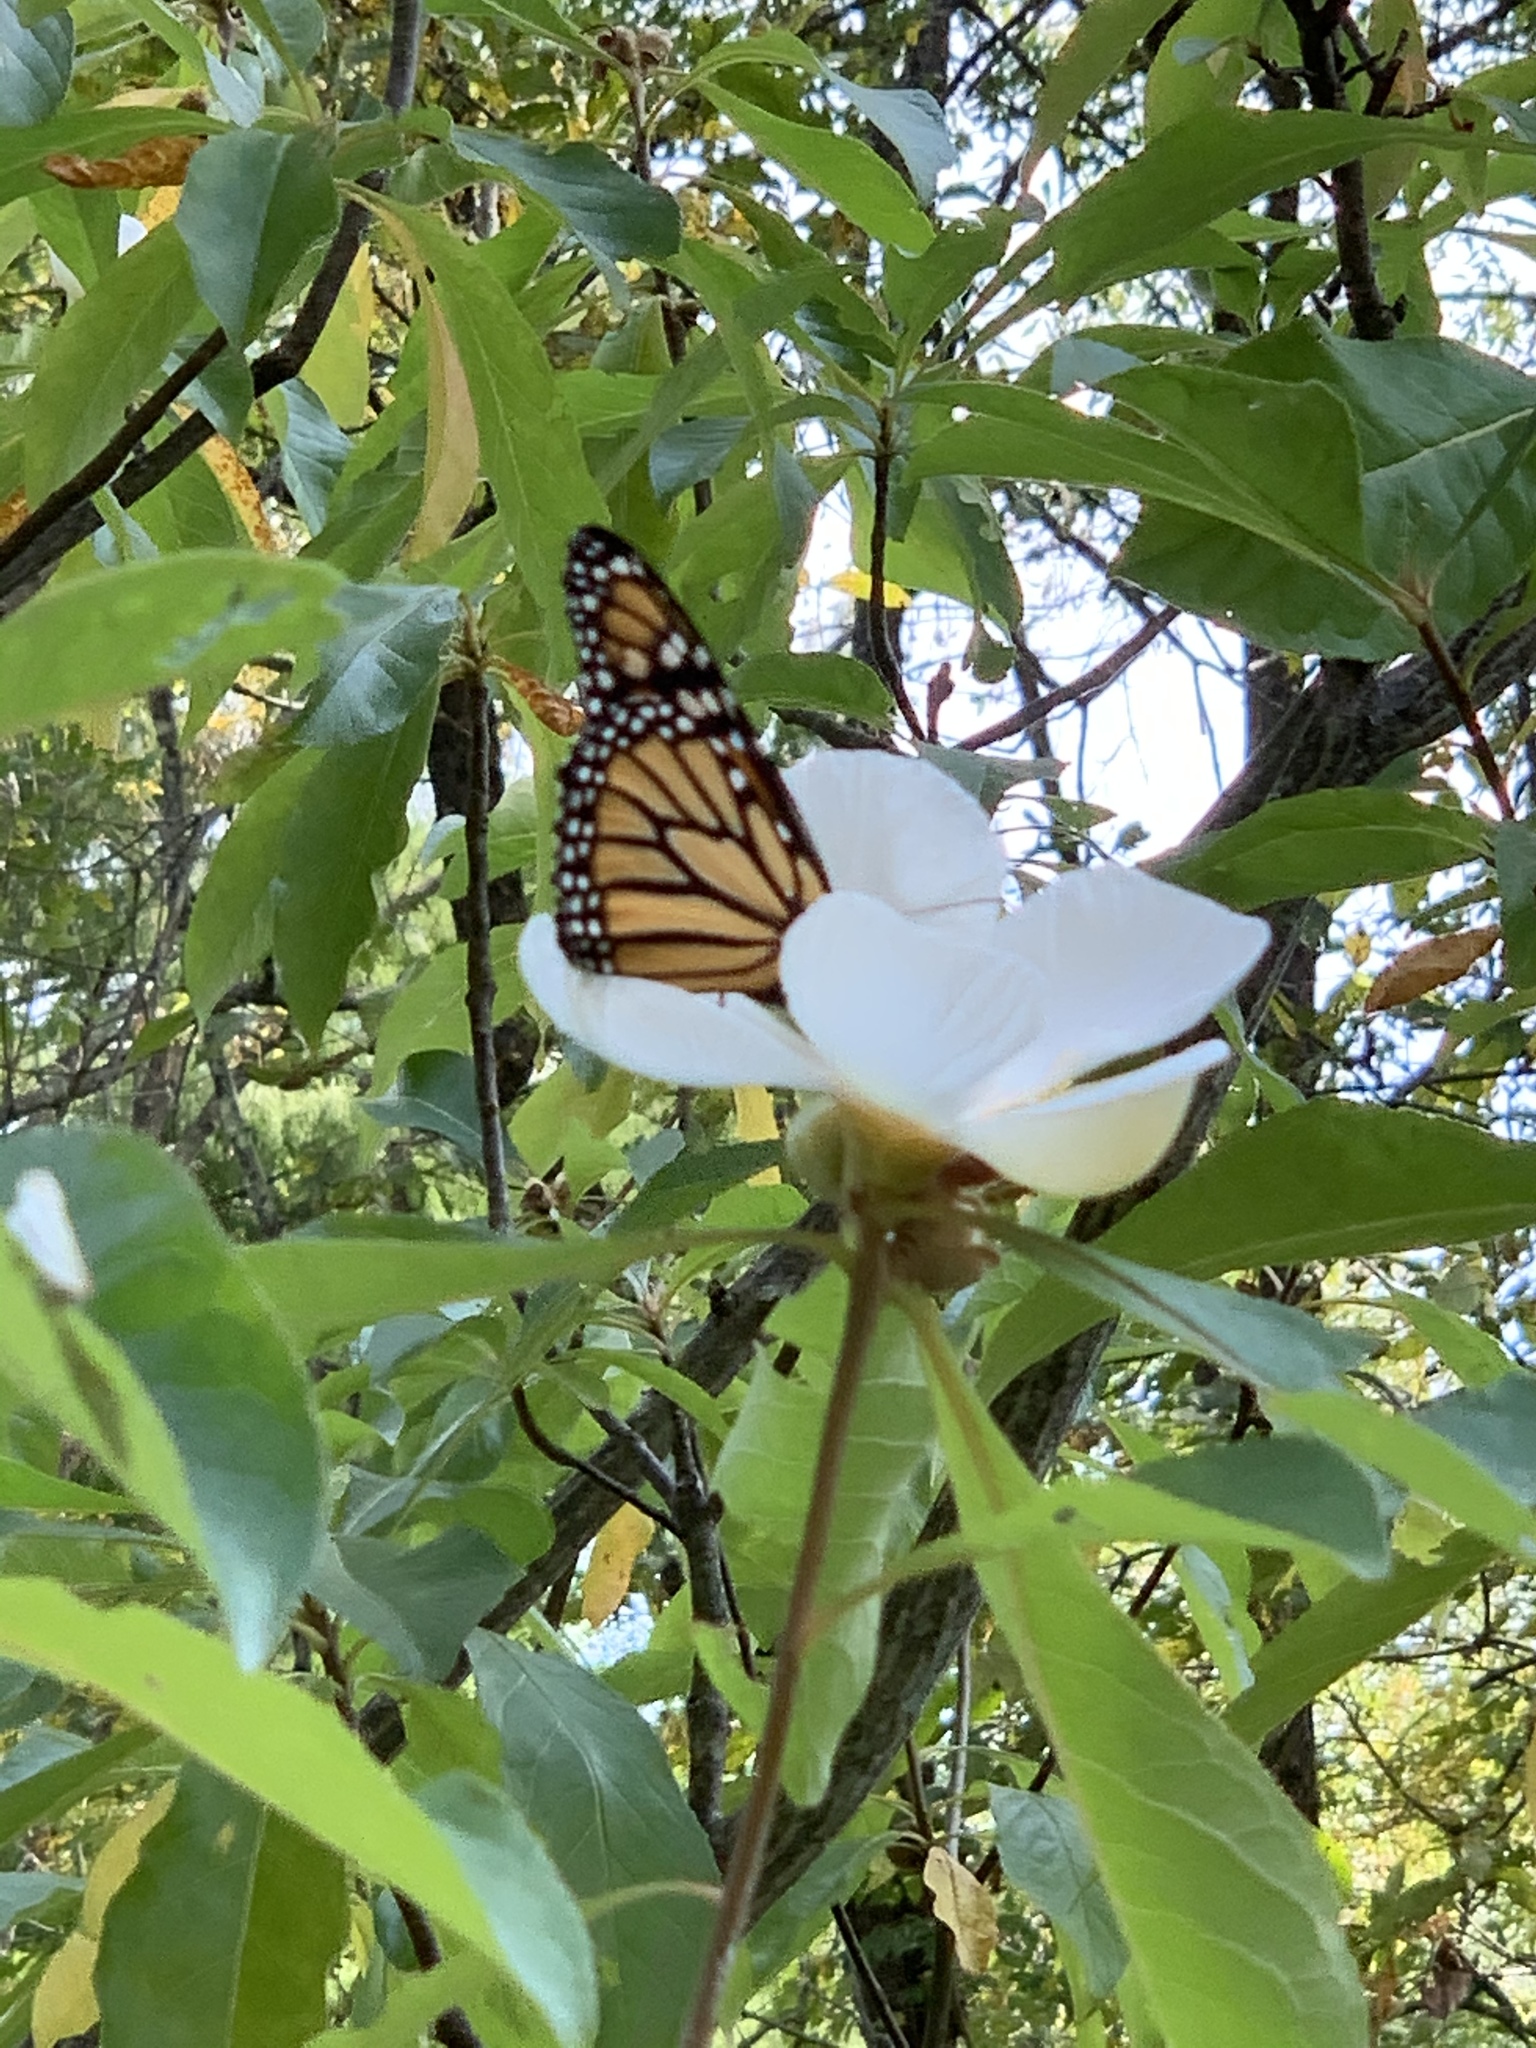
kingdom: Animalia
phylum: Arthropoda
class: Insecta
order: Lepidoptera
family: Nymphalidae
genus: Danaus
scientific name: Danaus plexippus
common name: Monarch
